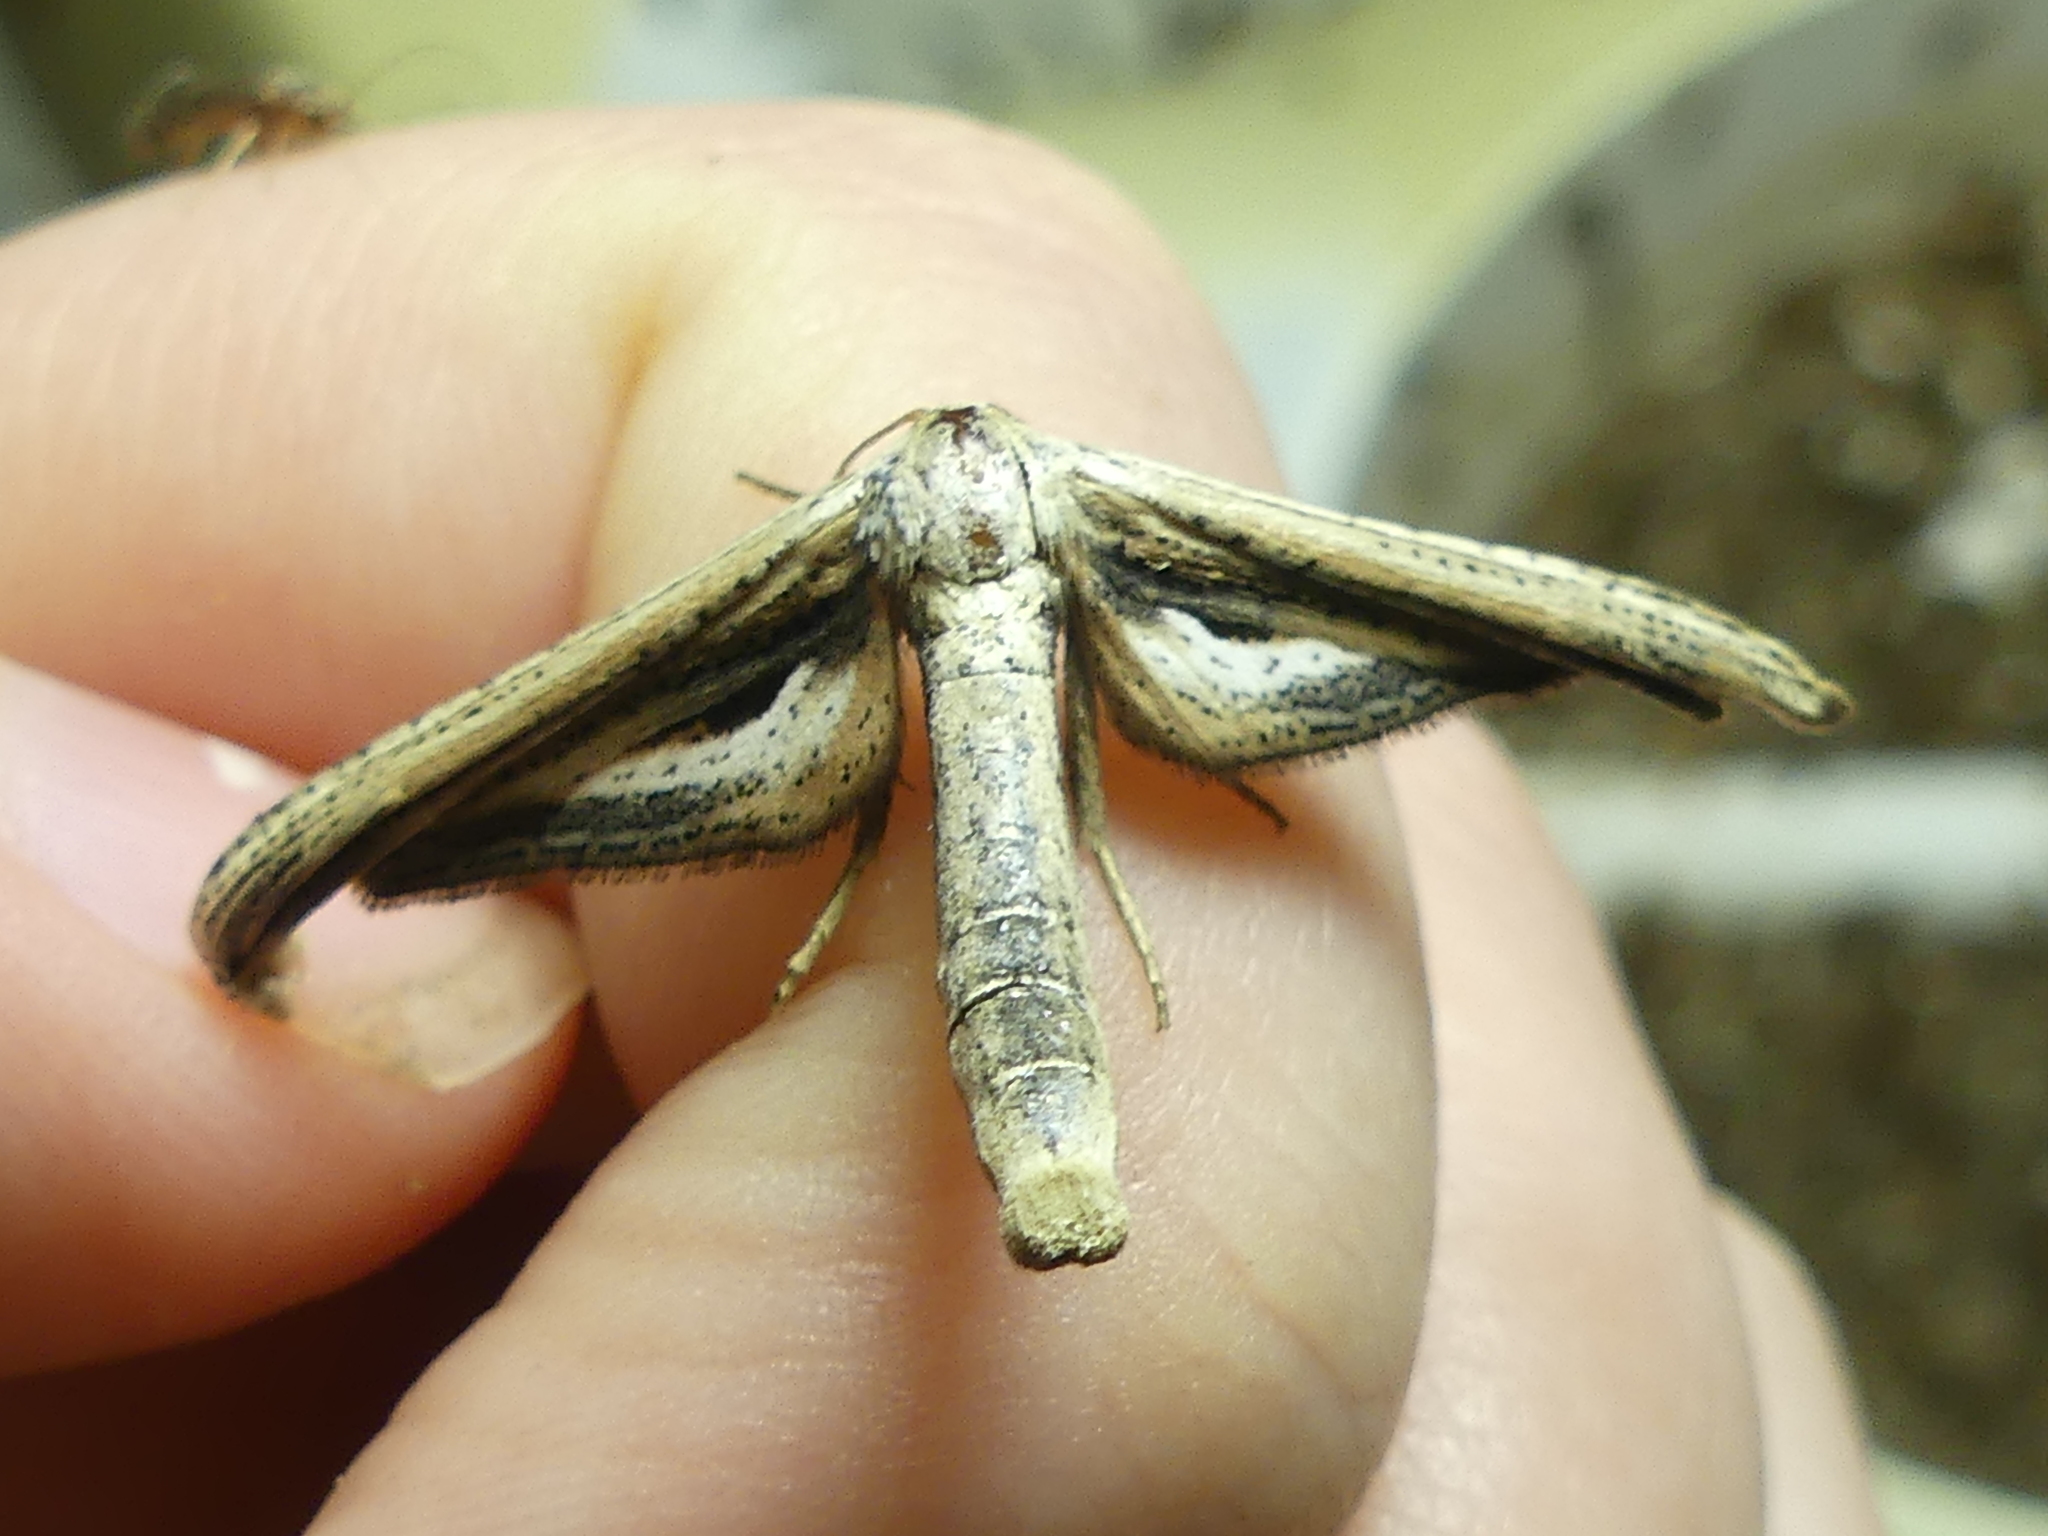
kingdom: Animalia
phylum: Arthropoda
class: Insecta
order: Lepidoptera
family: Thyrididae
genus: Meskea
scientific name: Meskea dyspteraria
